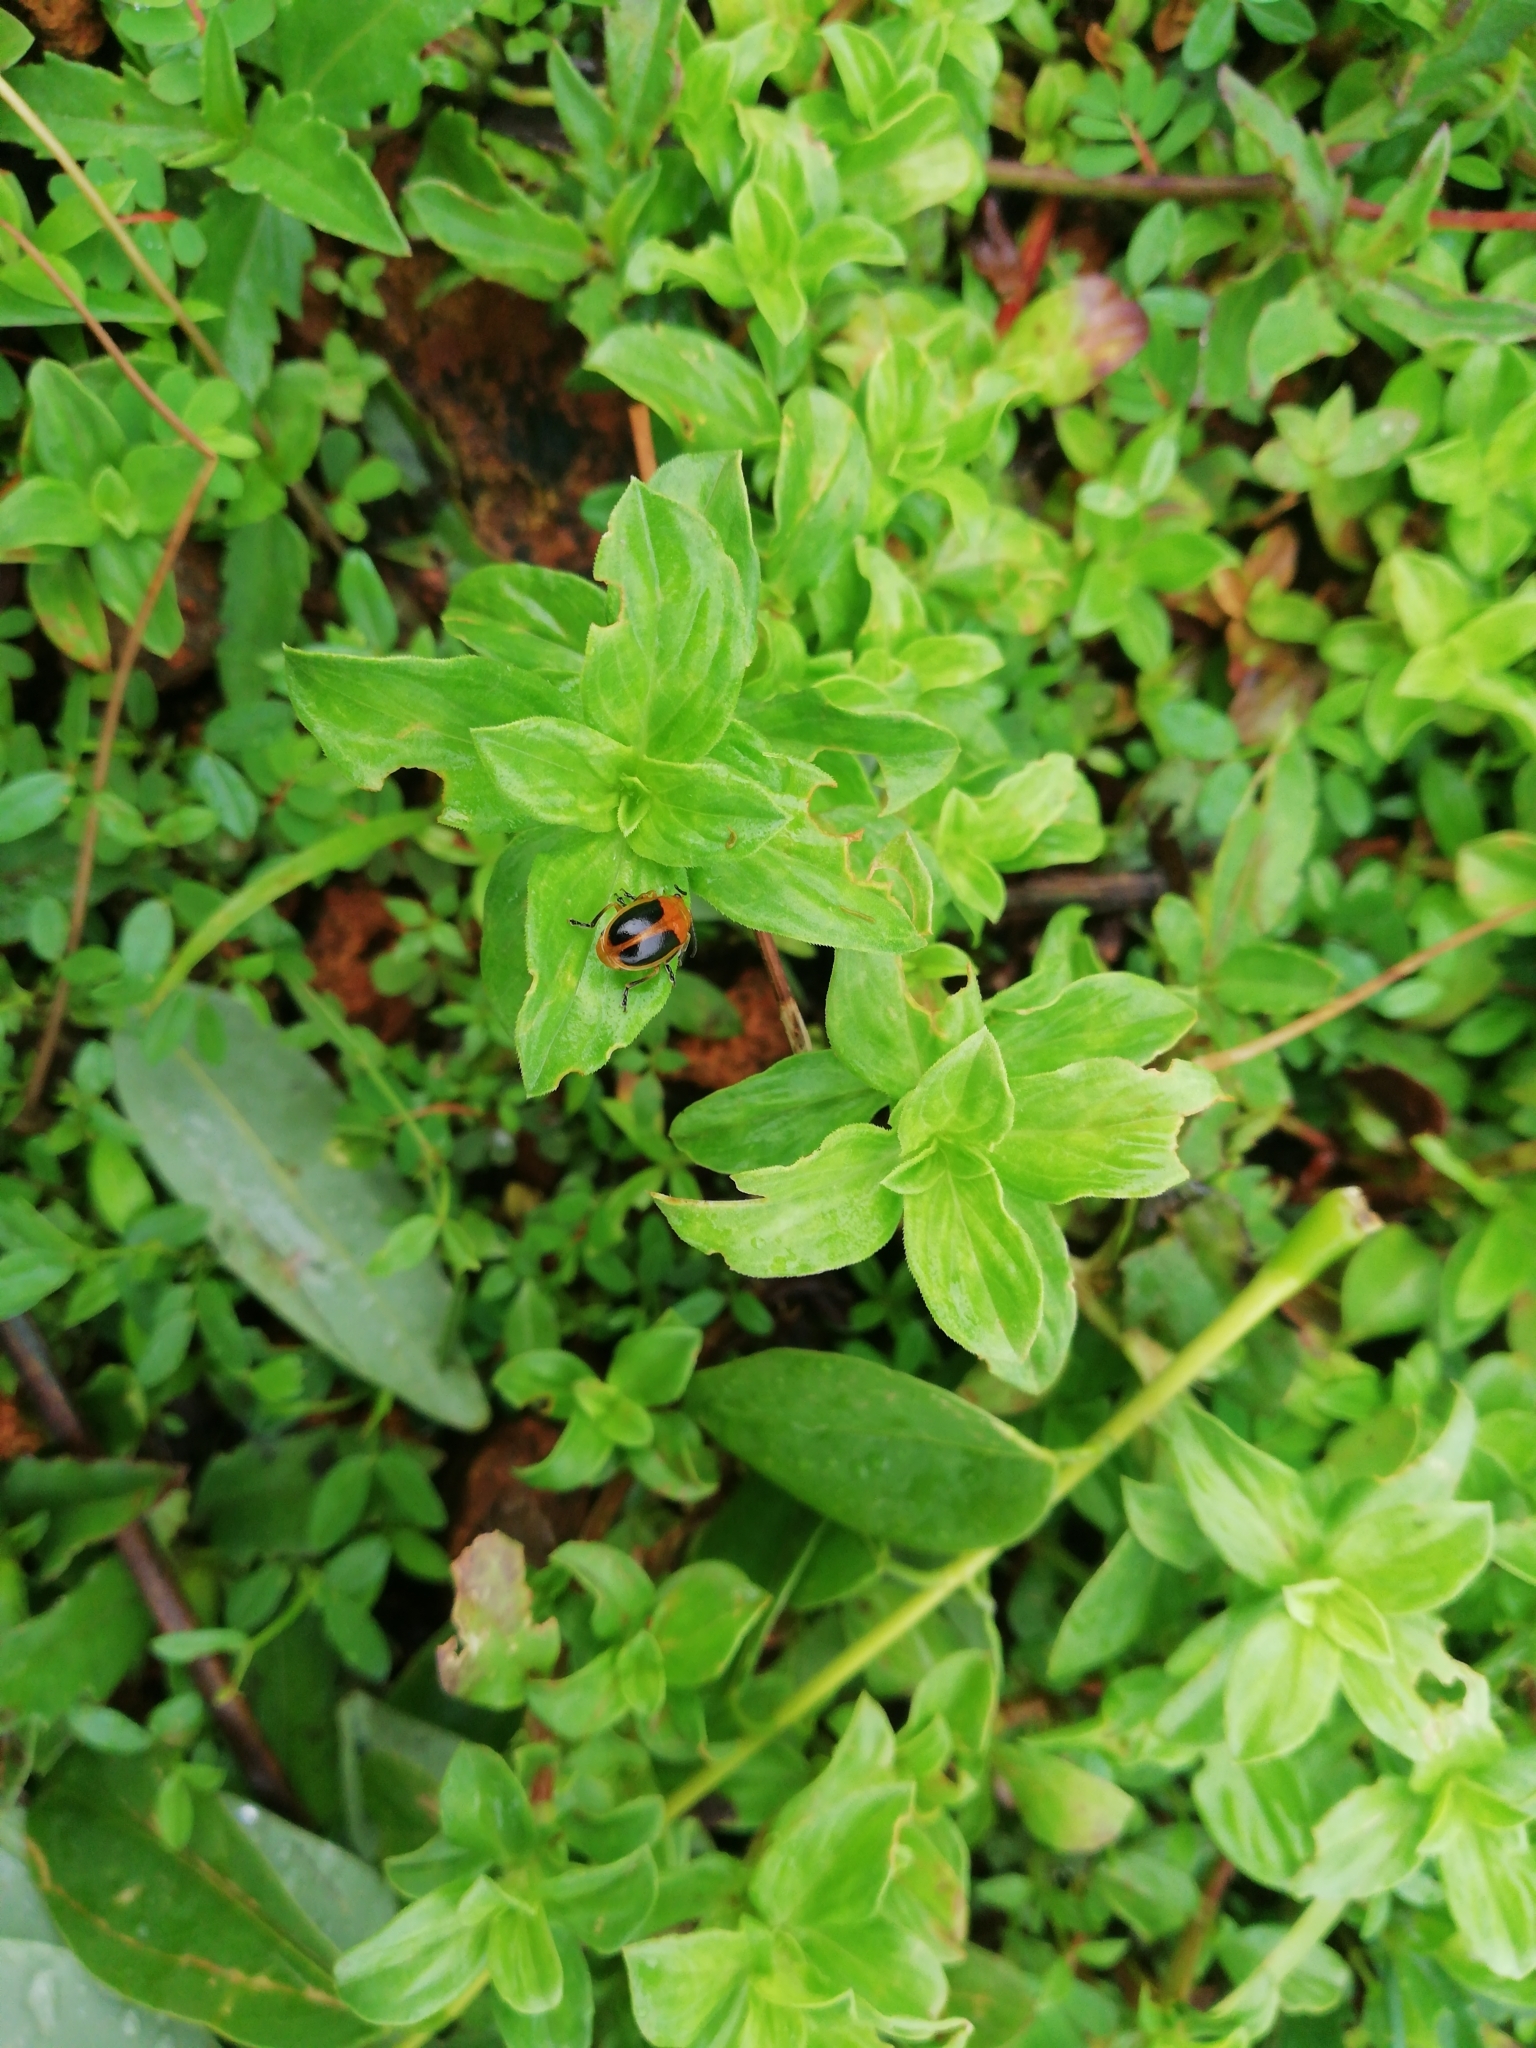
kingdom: Animalia
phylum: Arthropoda
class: Insecta
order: Coleoptera
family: Chrysomelidae
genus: Oides
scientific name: Oides affinis
